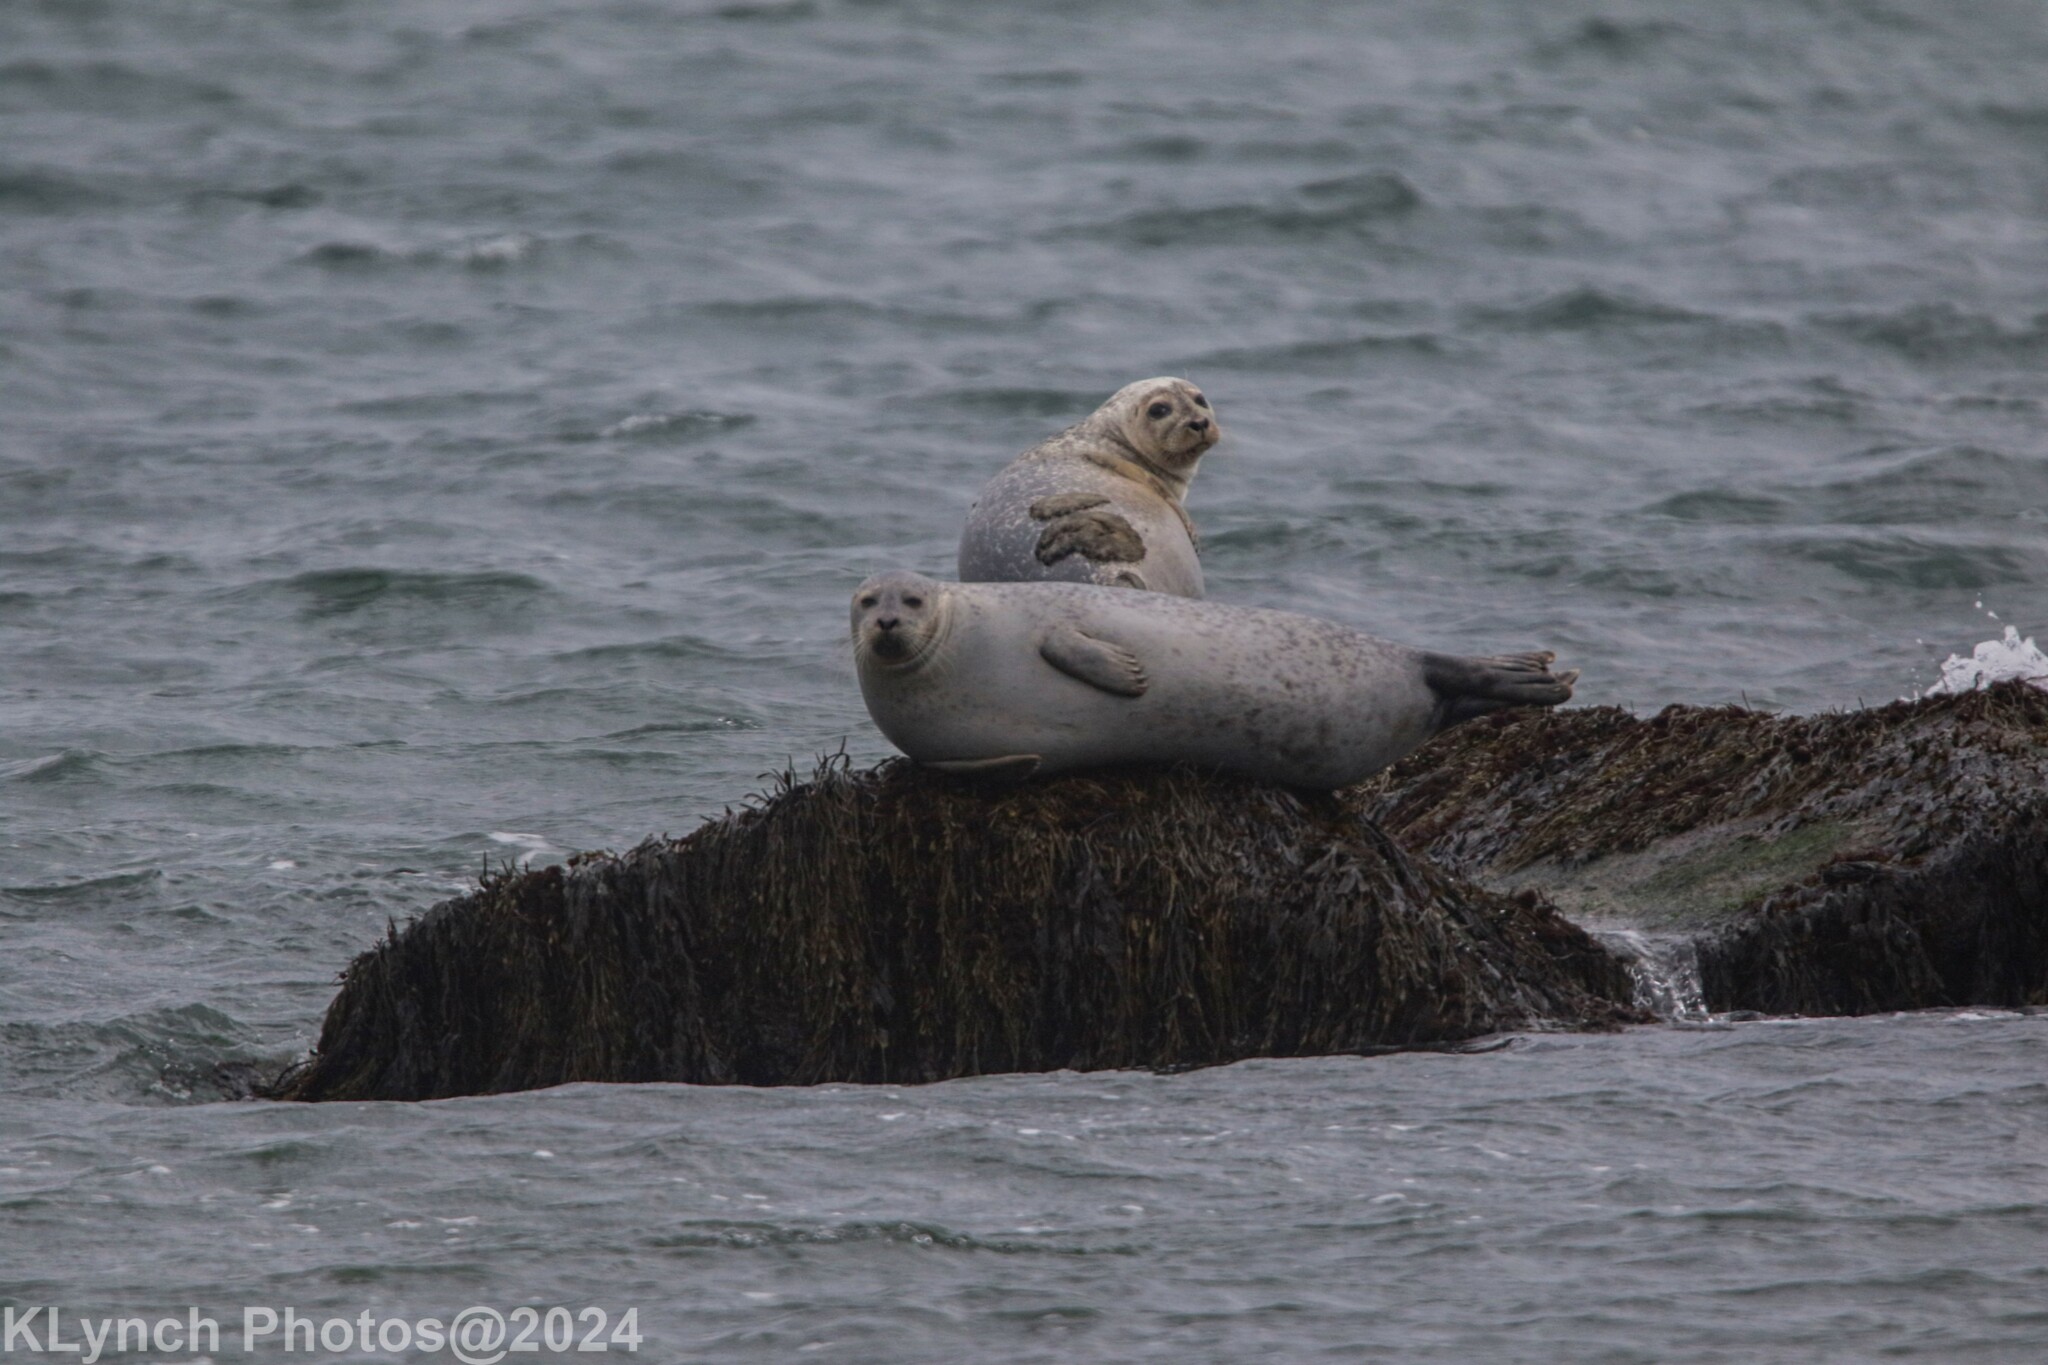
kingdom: Animalia
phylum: Chordata
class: Mammalia
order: Carnivora
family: Phocidae
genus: Phoca
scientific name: Phoca vitulina
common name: Harbor seal
